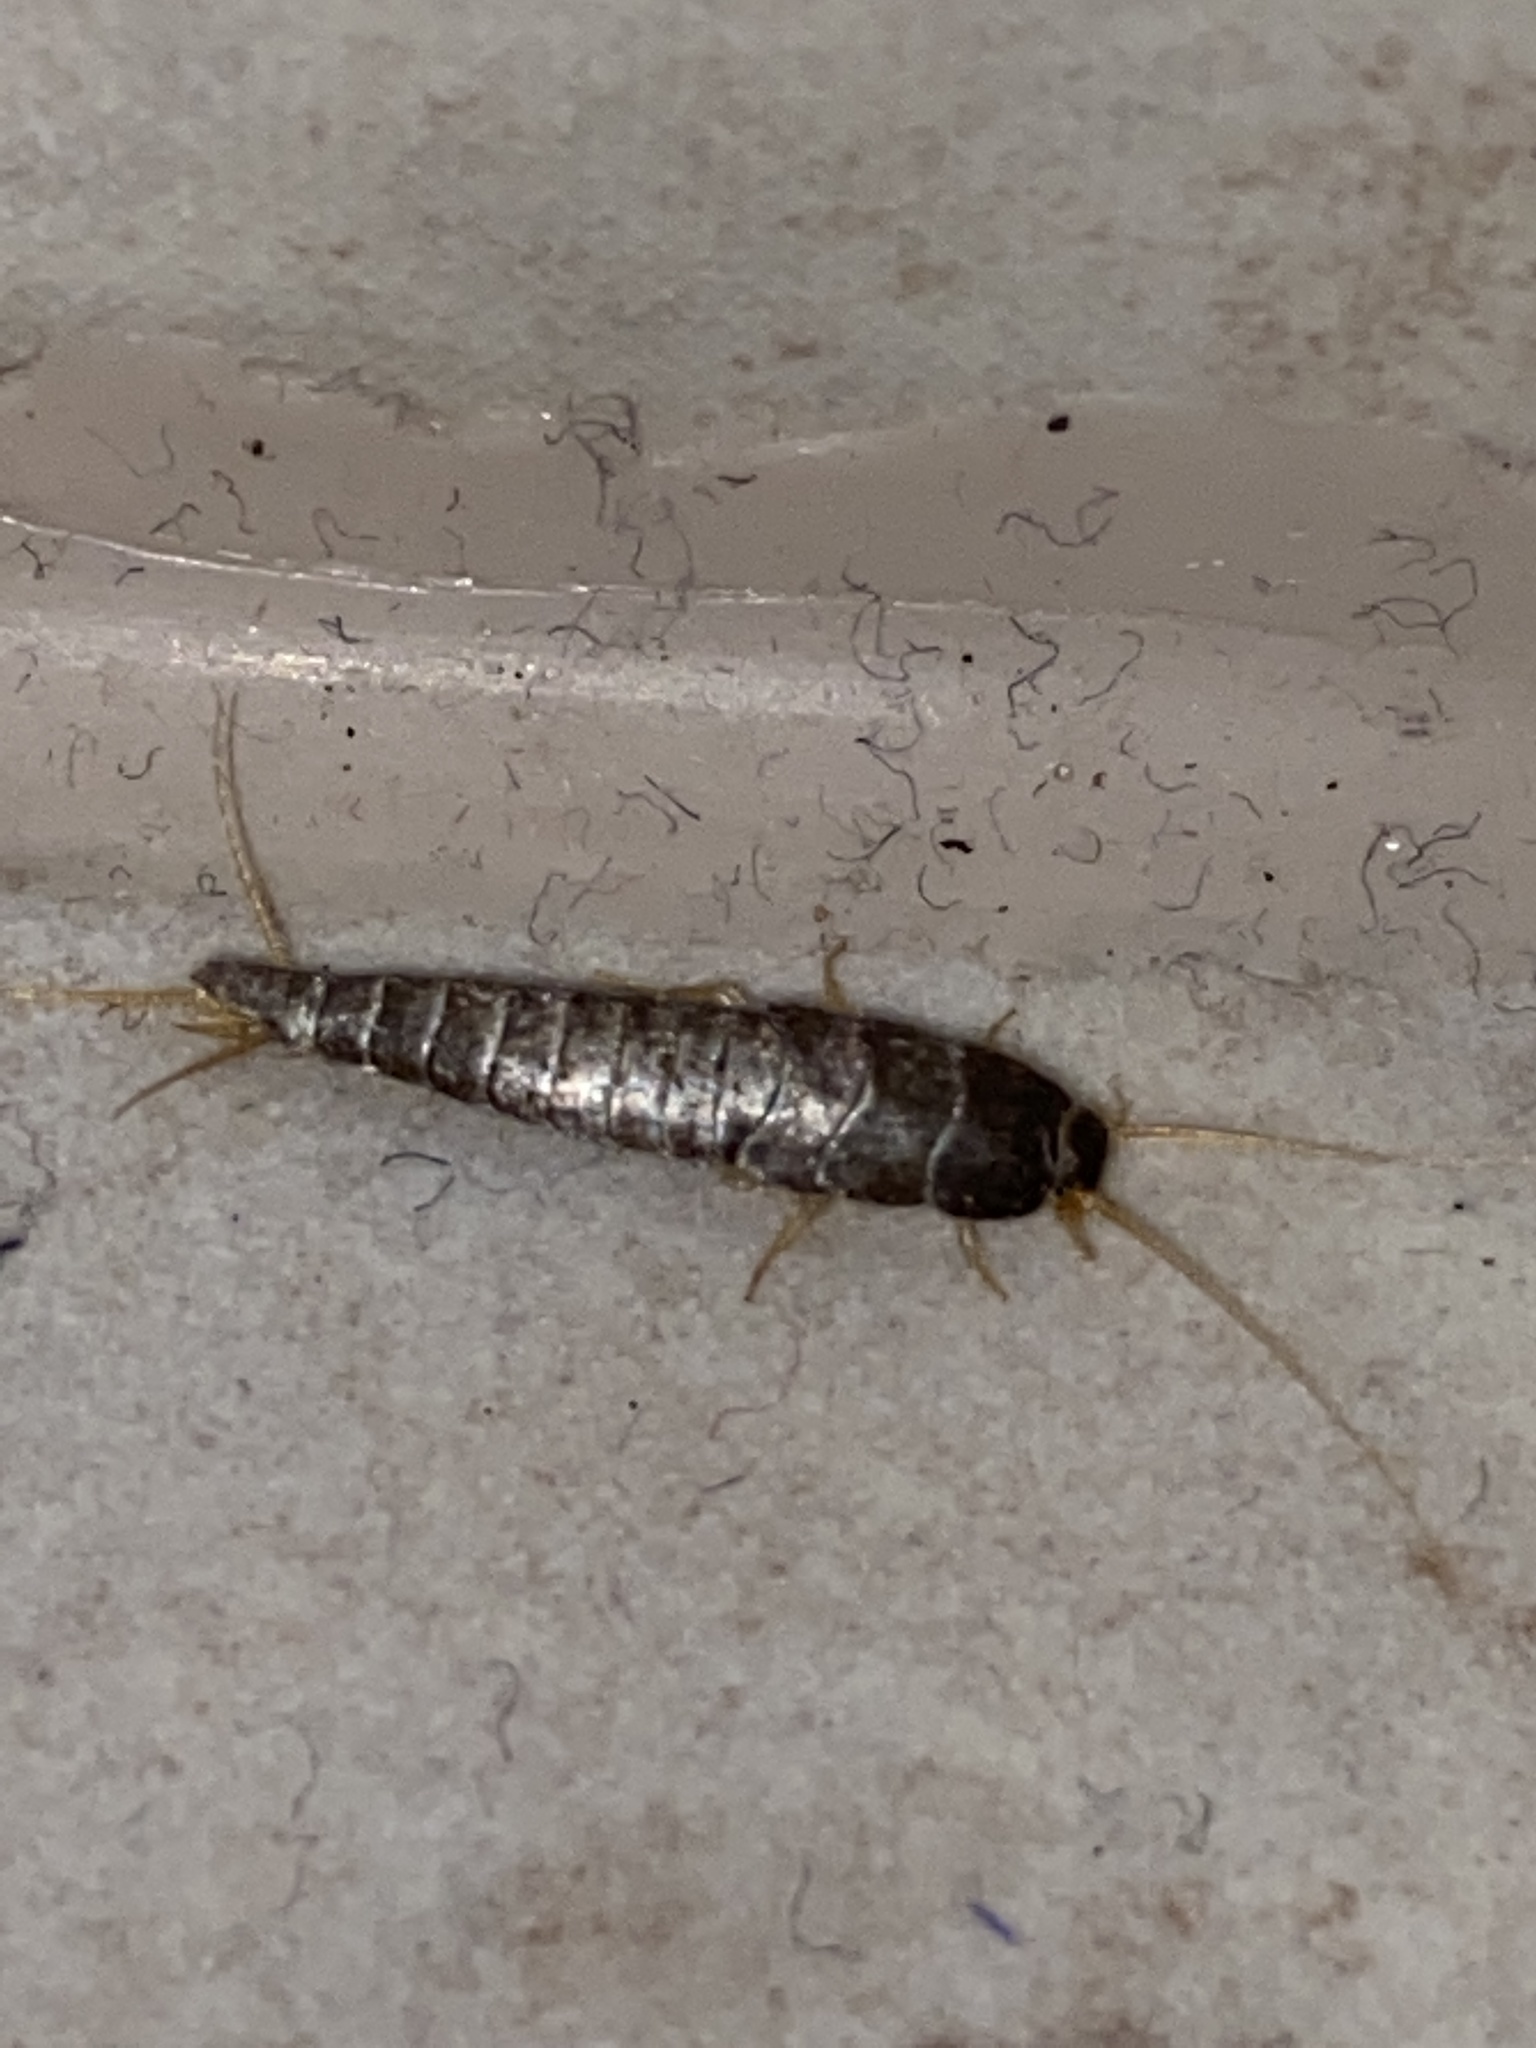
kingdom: Animalia
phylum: Arthropoda
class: Insecta
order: Zygentoma
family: Lepismatidae
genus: Lepisma
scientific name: Lepisma saccharinum
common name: Silverfish
